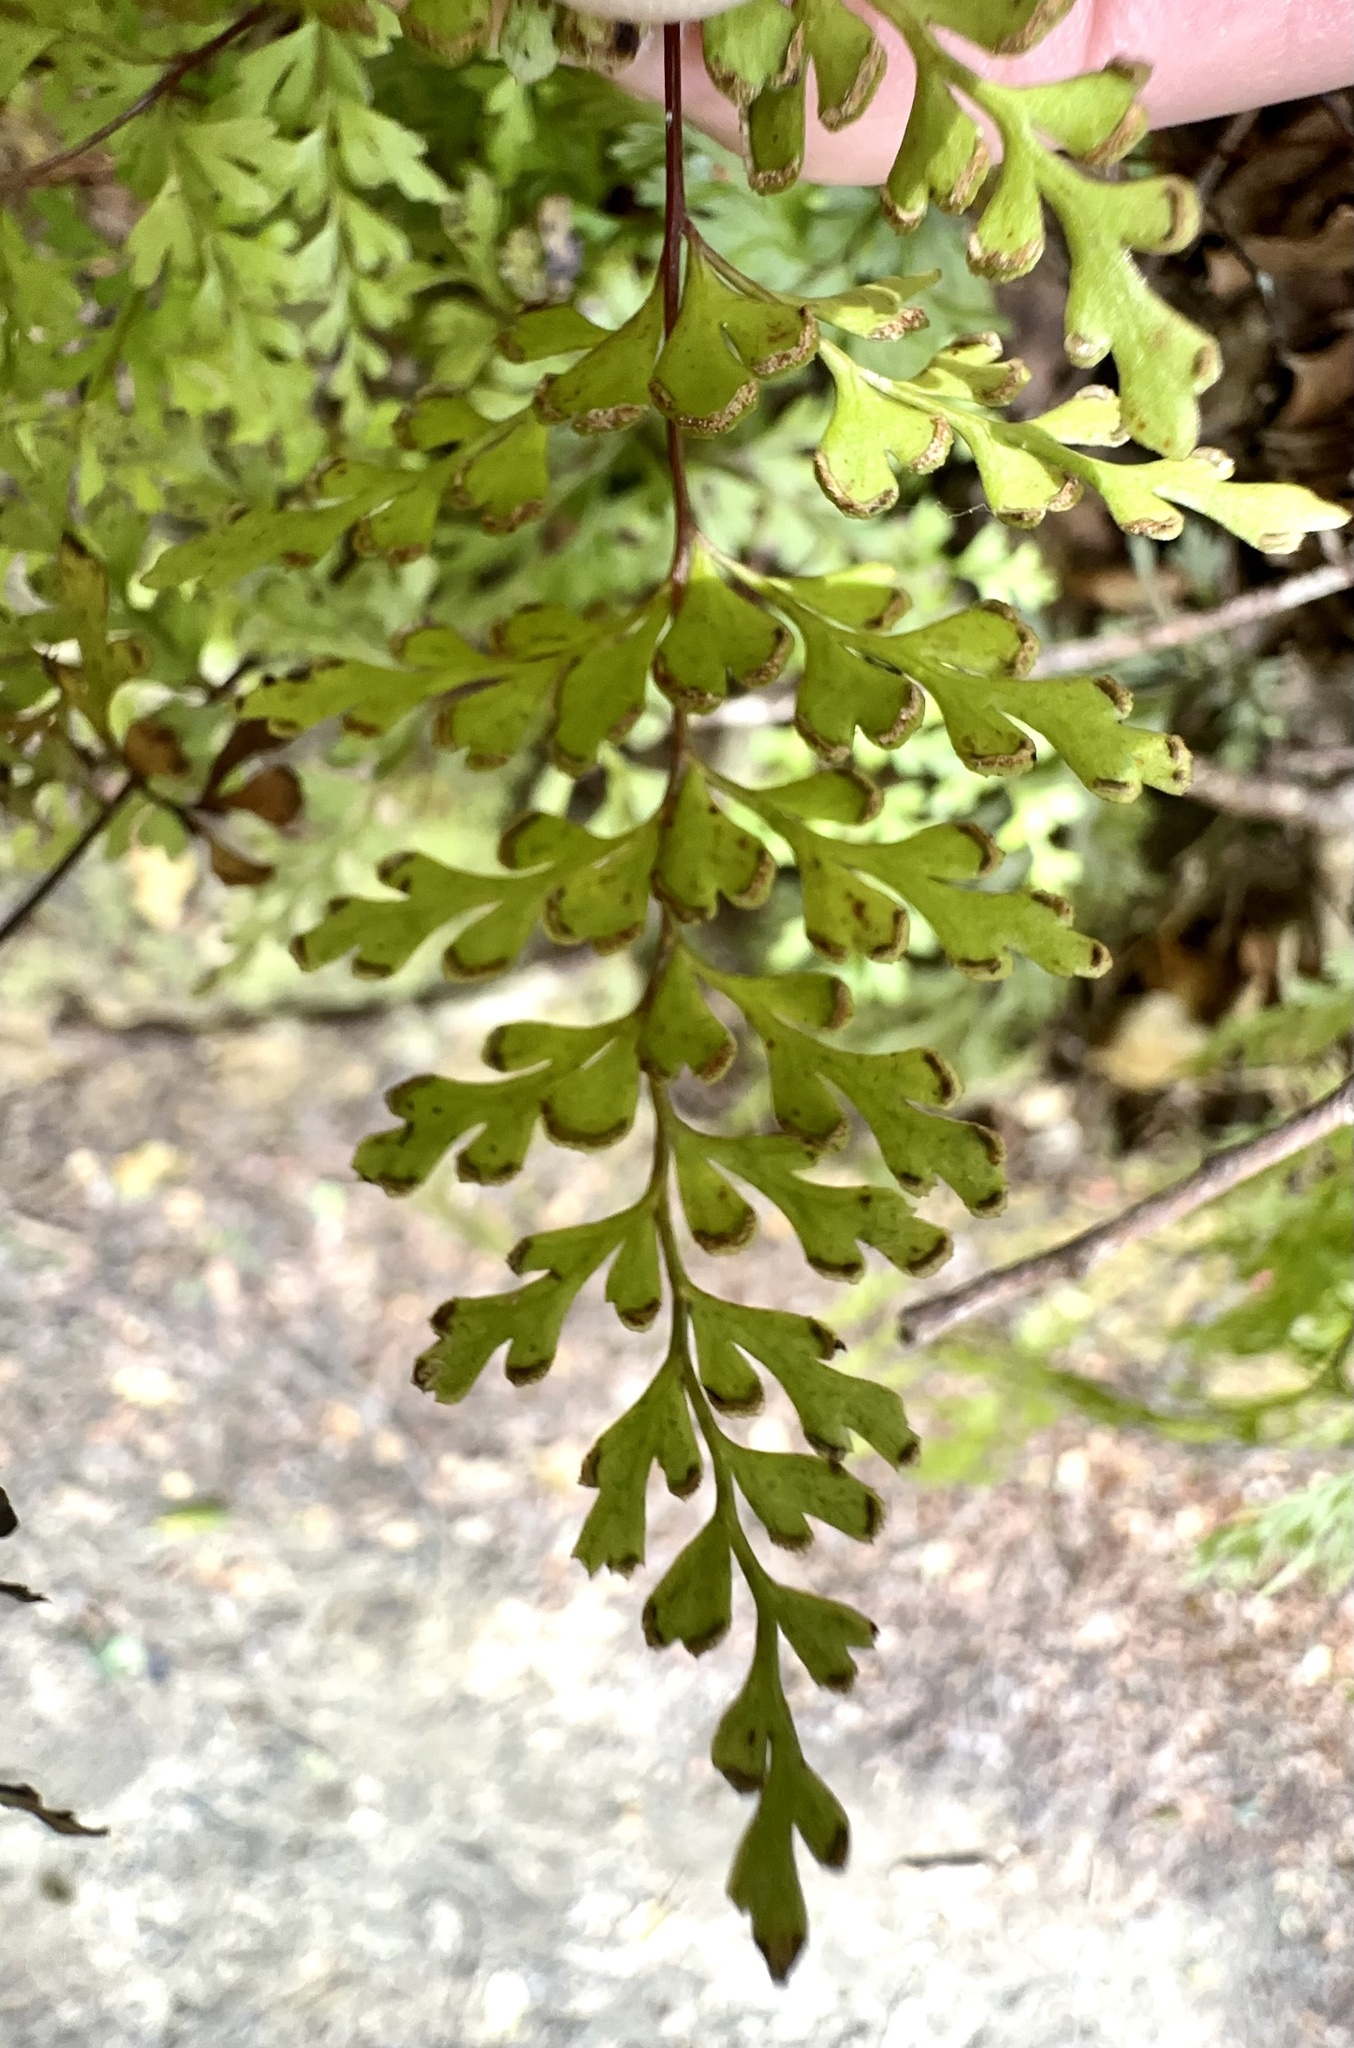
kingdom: Plantae
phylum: Tracheophyta
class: Polypodiopsida
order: Polypodiales
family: Lindsaeaceae
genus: Lindsaea
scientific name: Lindsaea trichomanoides
